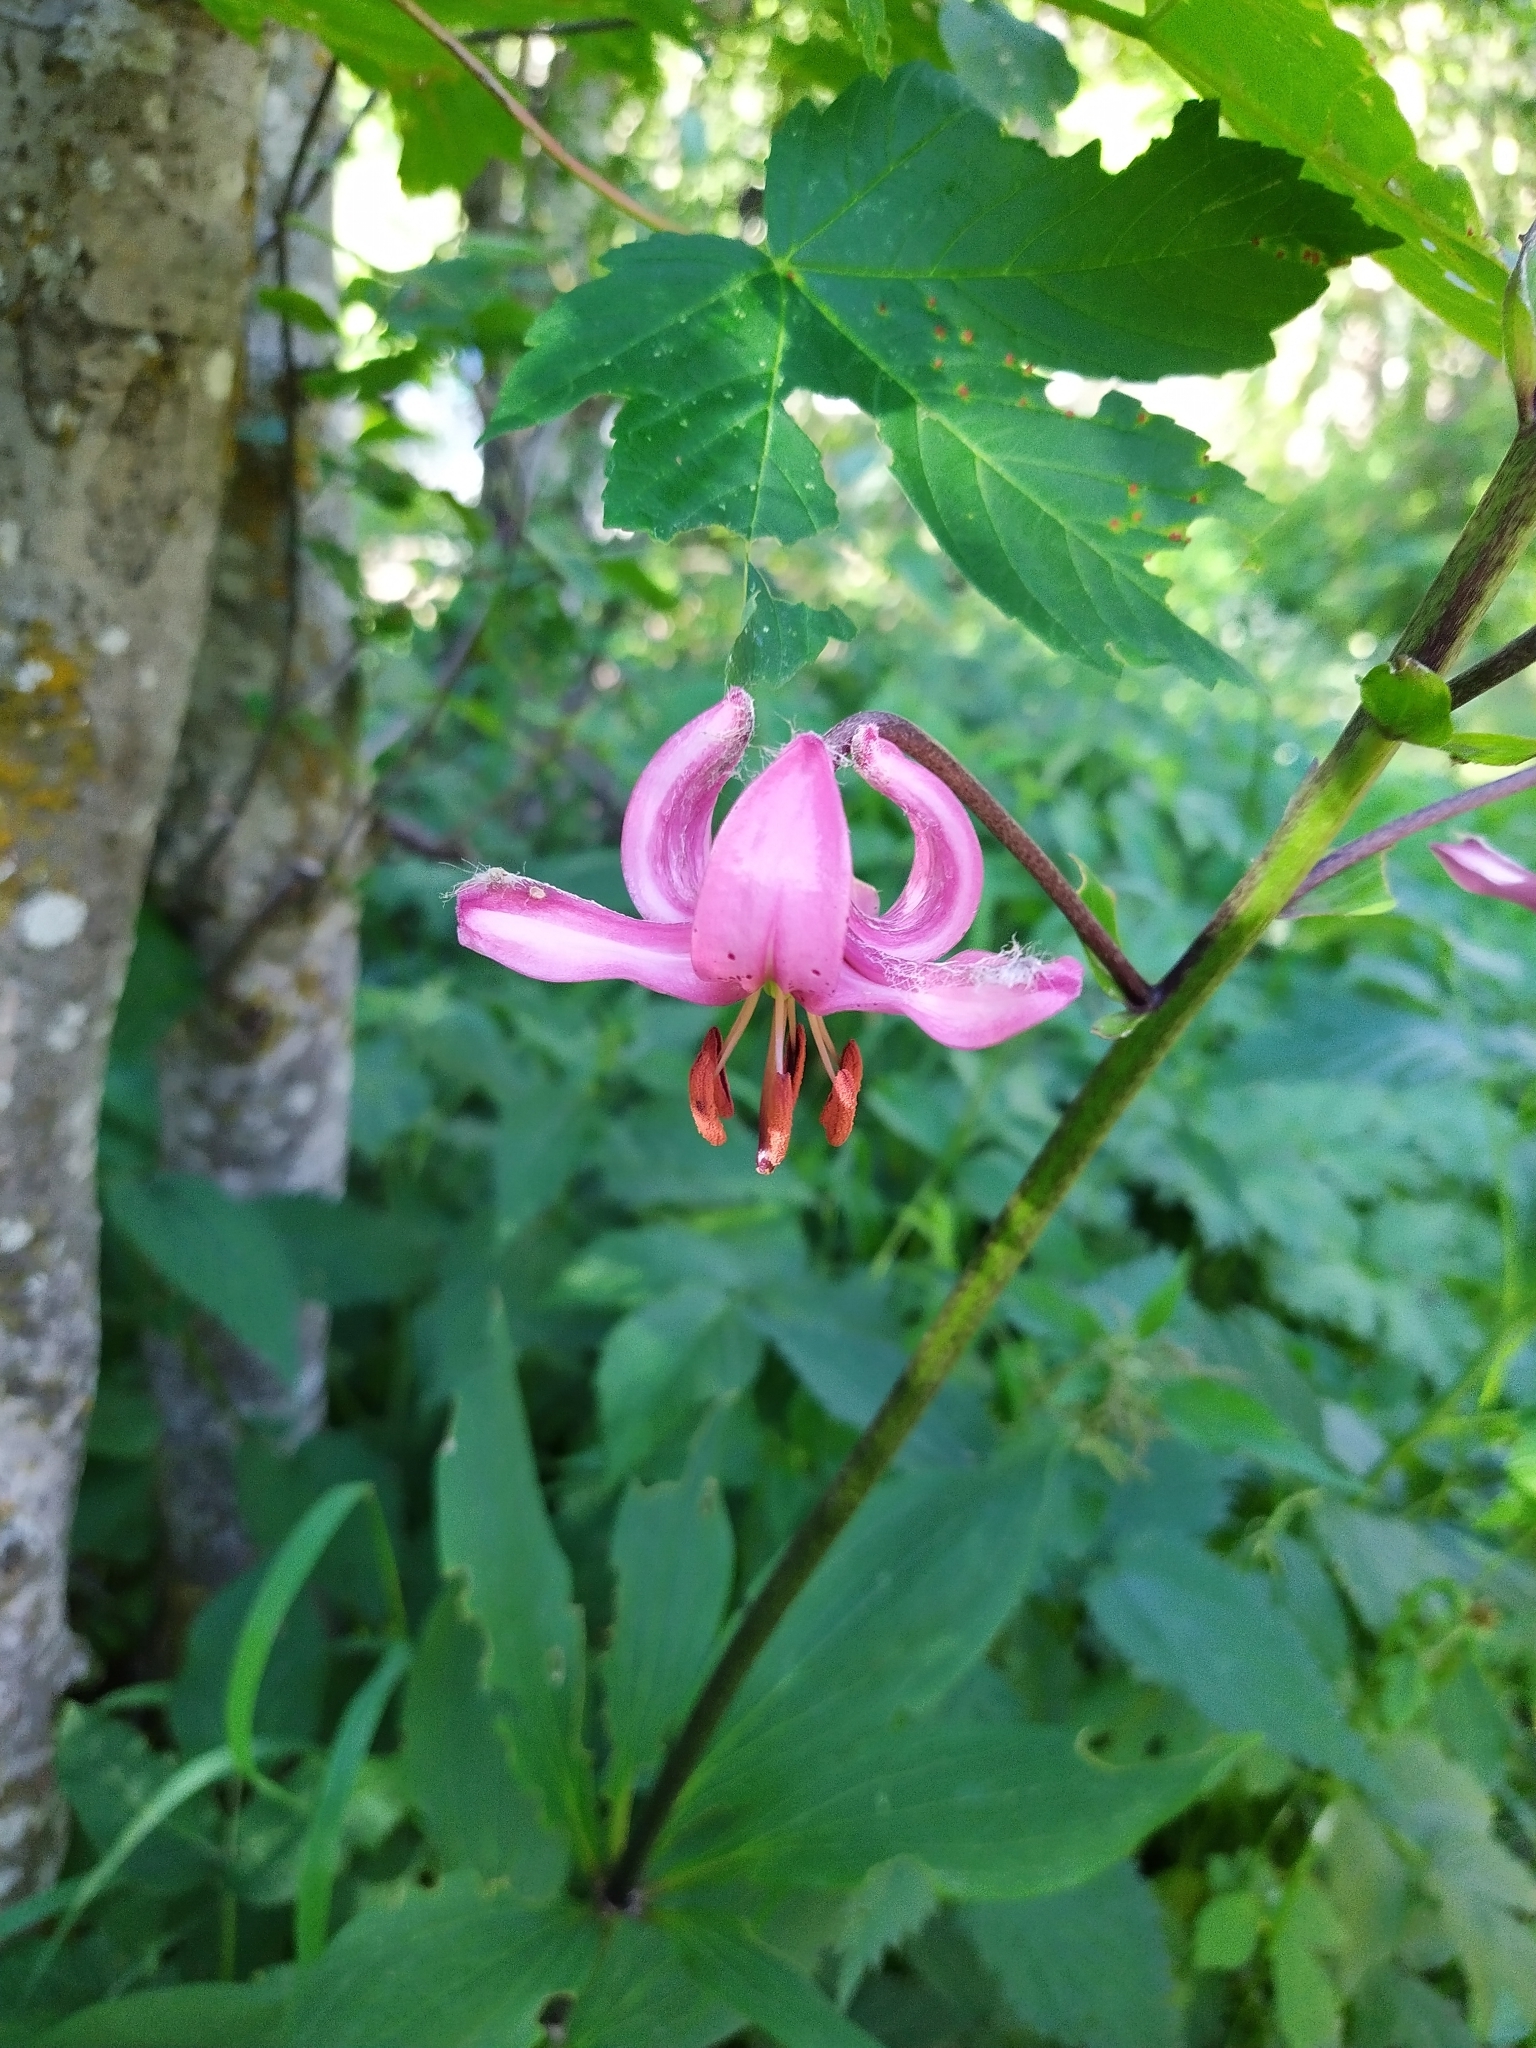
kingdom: Plantae
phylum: Tracheophyta
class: Liliopsida
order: Liliales
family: Liliaceae
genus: Lilium
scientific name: Lilium martagon
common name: Martagon lily
